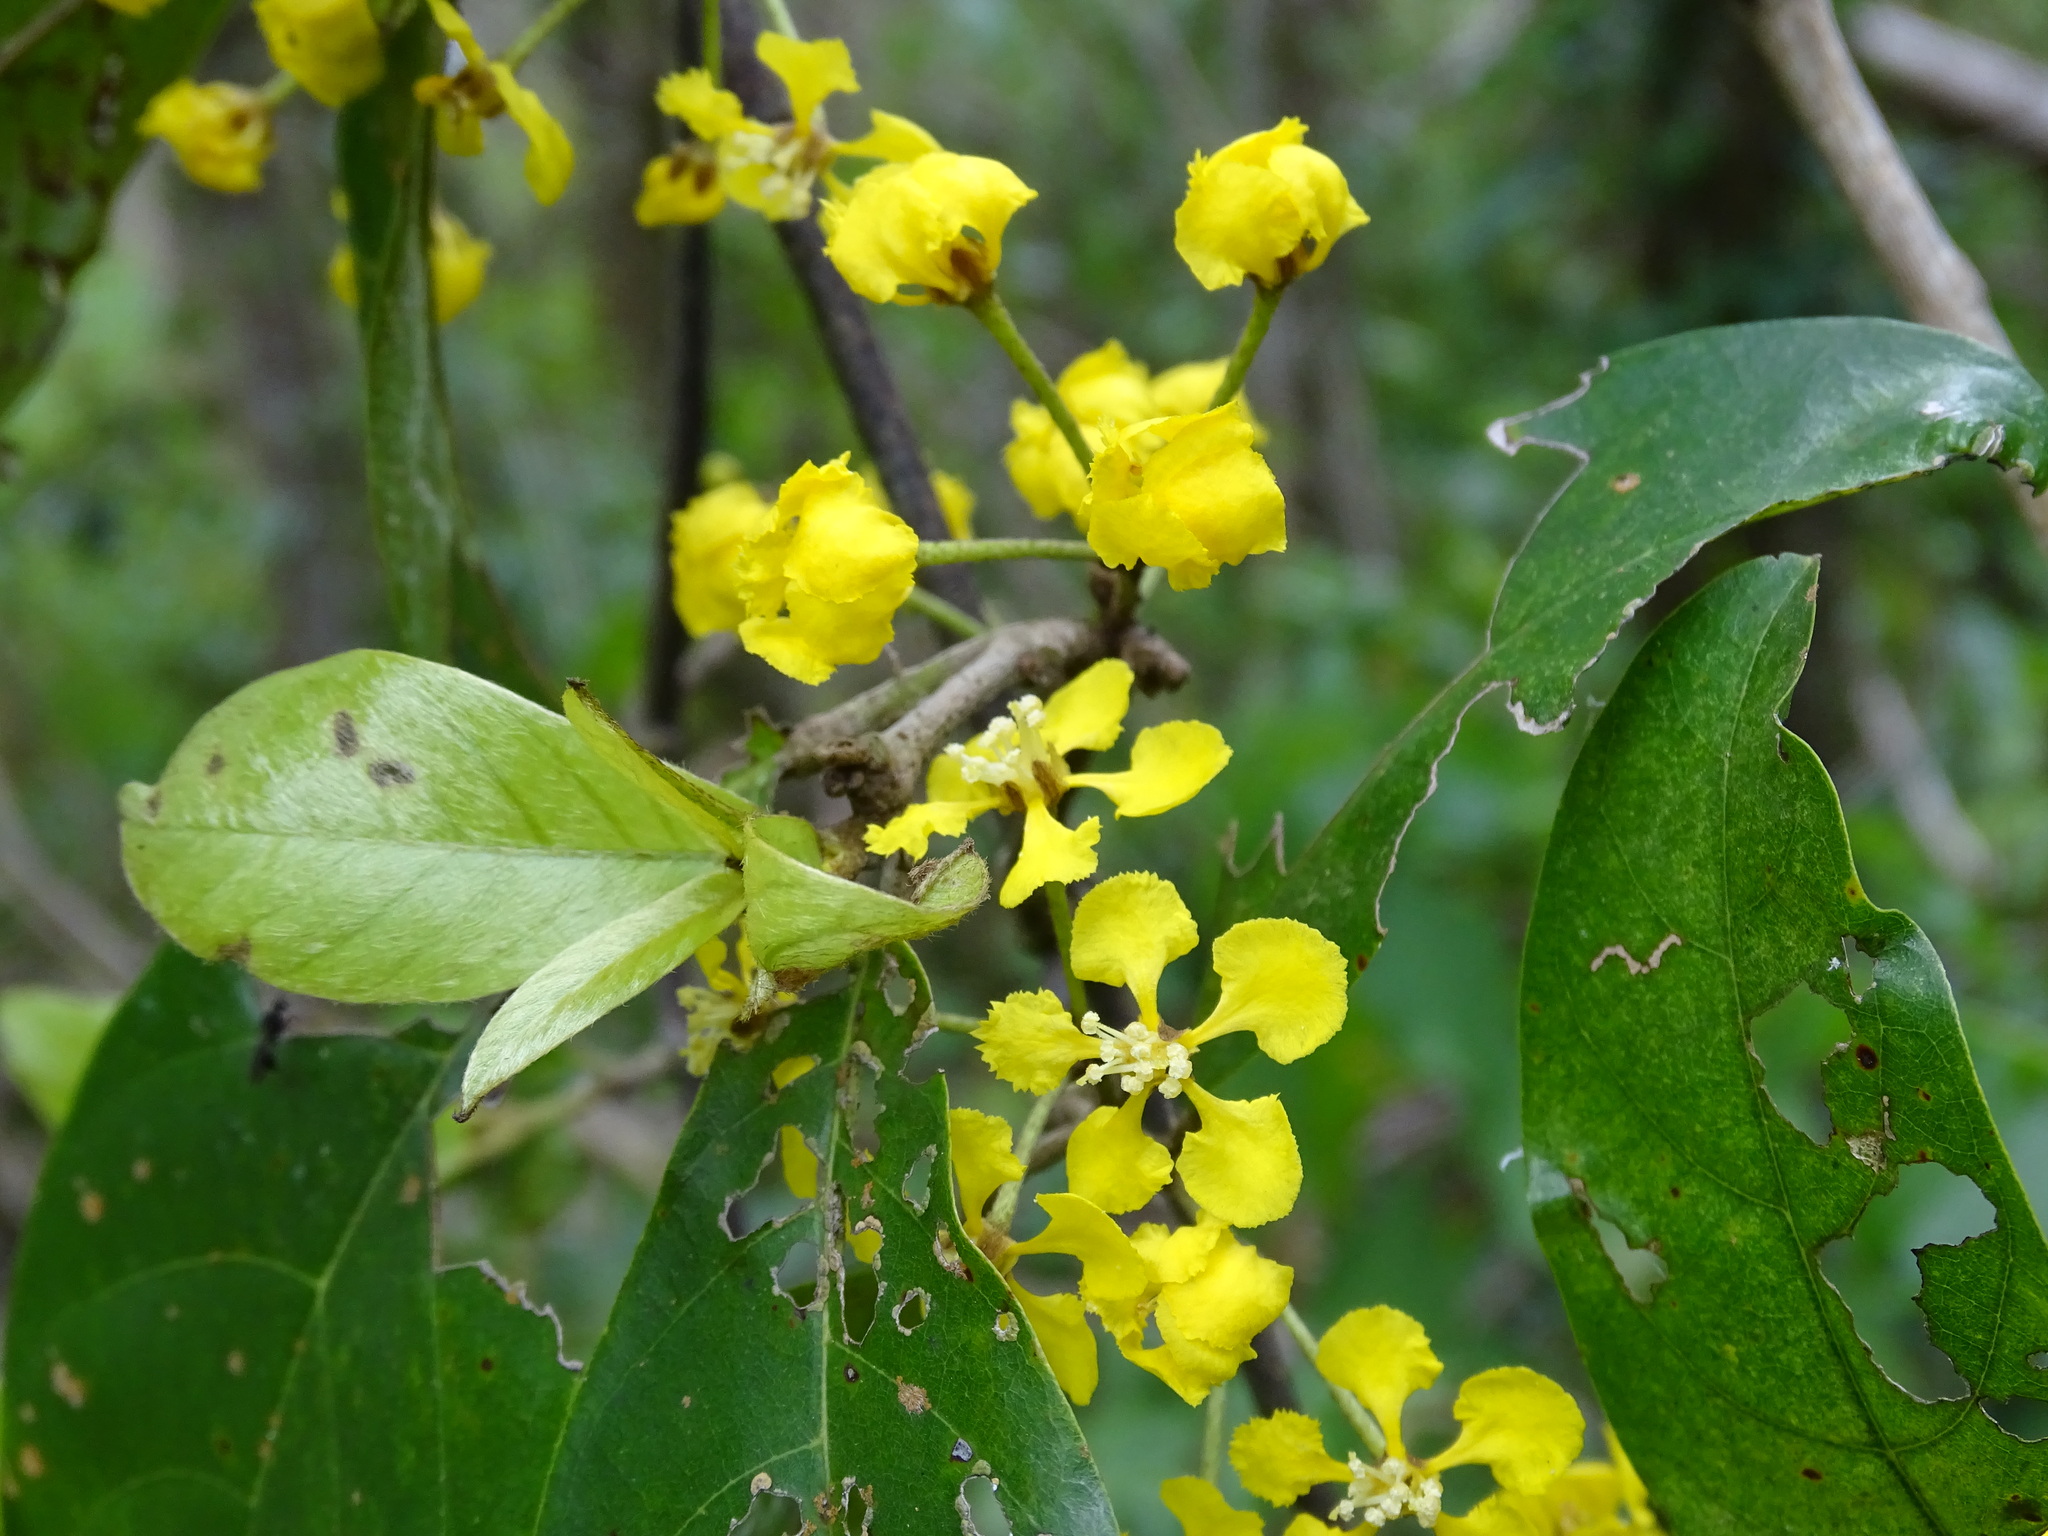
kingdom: Plantae
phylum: Tracheophyta
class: Magnoliopsida
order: Malpighiales
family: Malpighiaceae
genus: Hiraea
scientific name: Hiraea reclinata
